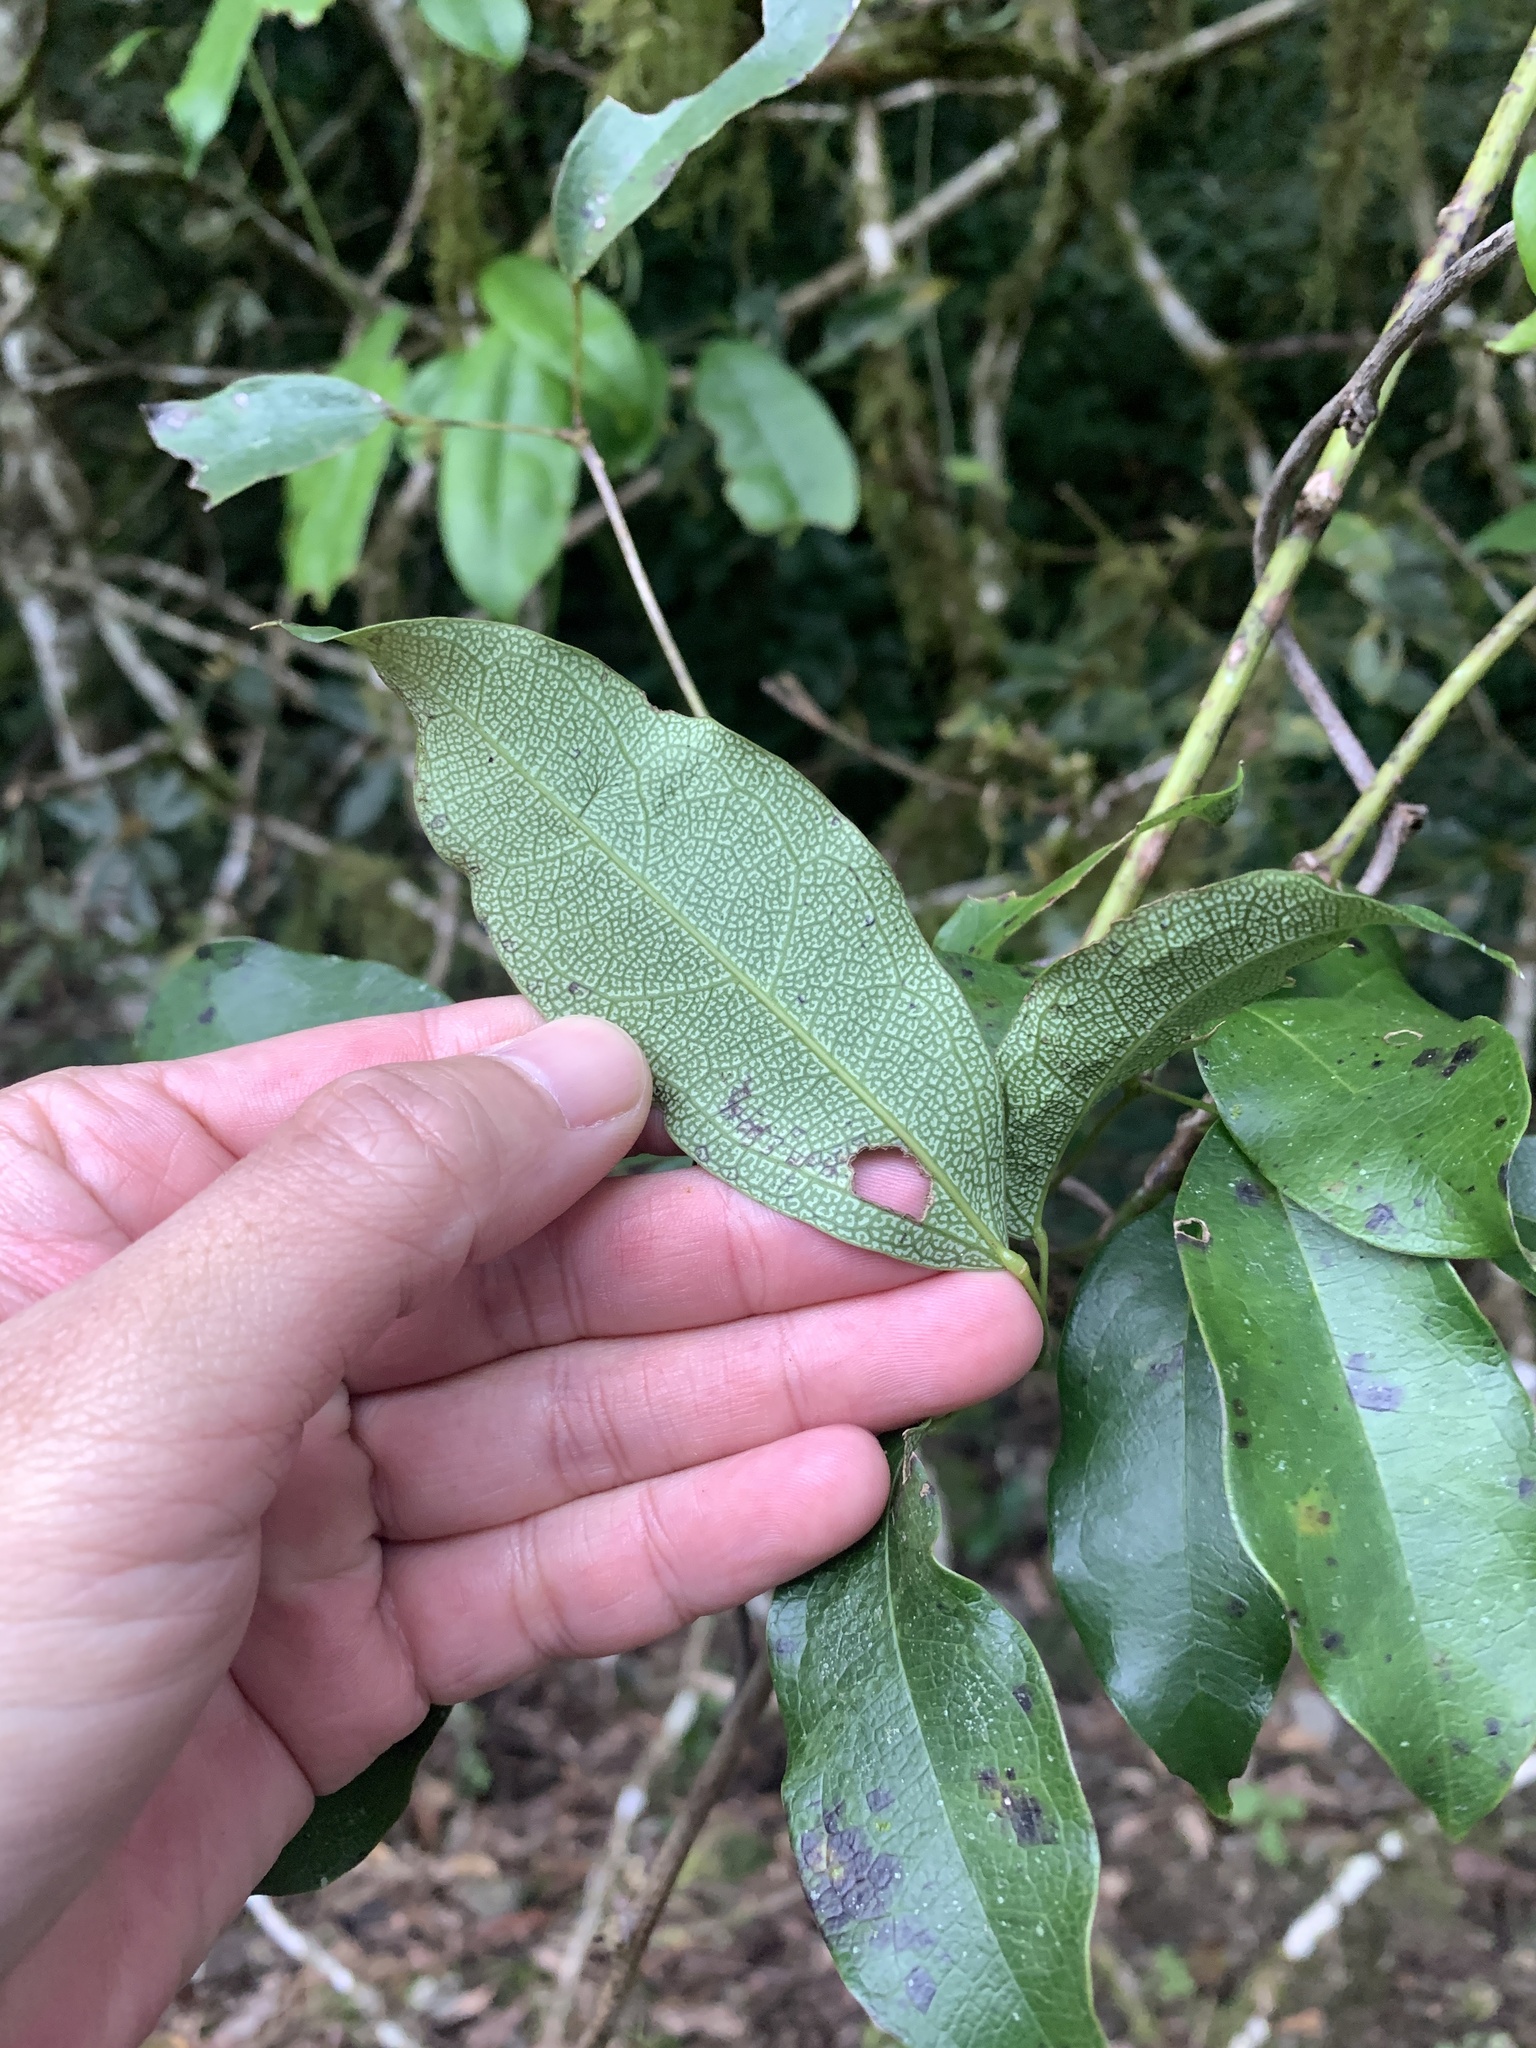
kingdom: Plantae
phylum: Tracheophyta
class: Magnoliopsida
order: Ranunculales
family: Lardizabalaceae
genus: Stauntonia
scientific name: Stauntonia obovatifoliola
